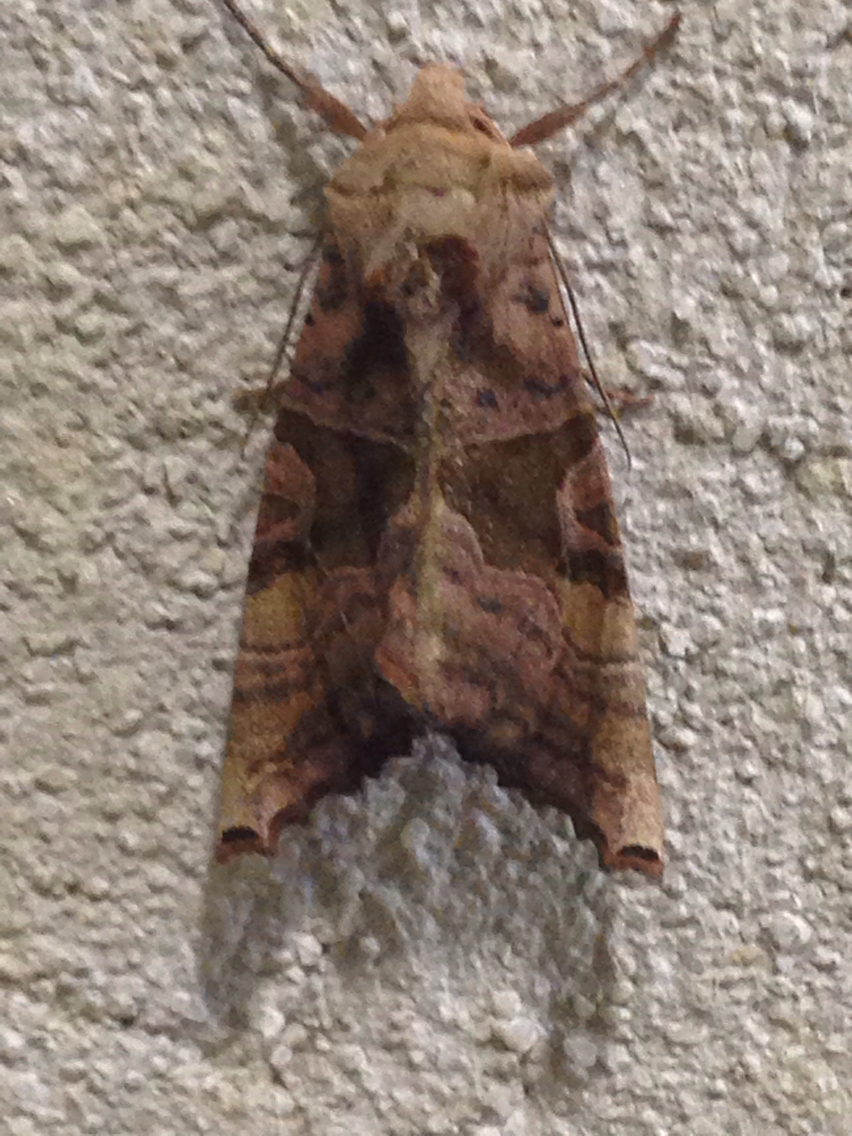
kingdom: Animalia
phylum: Arthropoda
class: Insecta
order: Lepidoptera
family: Noctuidae
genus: Phlogophora
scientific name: Phlogophora periculosa
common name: Brown angle shades
